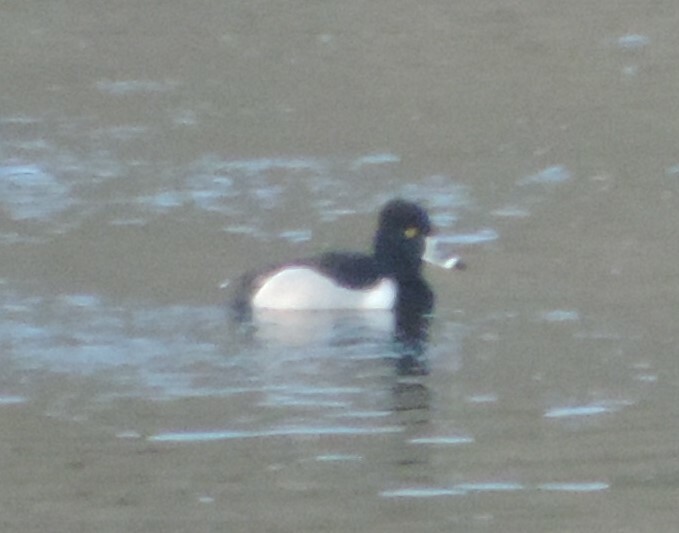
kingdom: Animalia
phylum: Chordata
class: Aves
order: Anseriformes
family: Anatidae
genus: Aythya
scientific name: Aythya collaris
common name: Ring-necked duck
